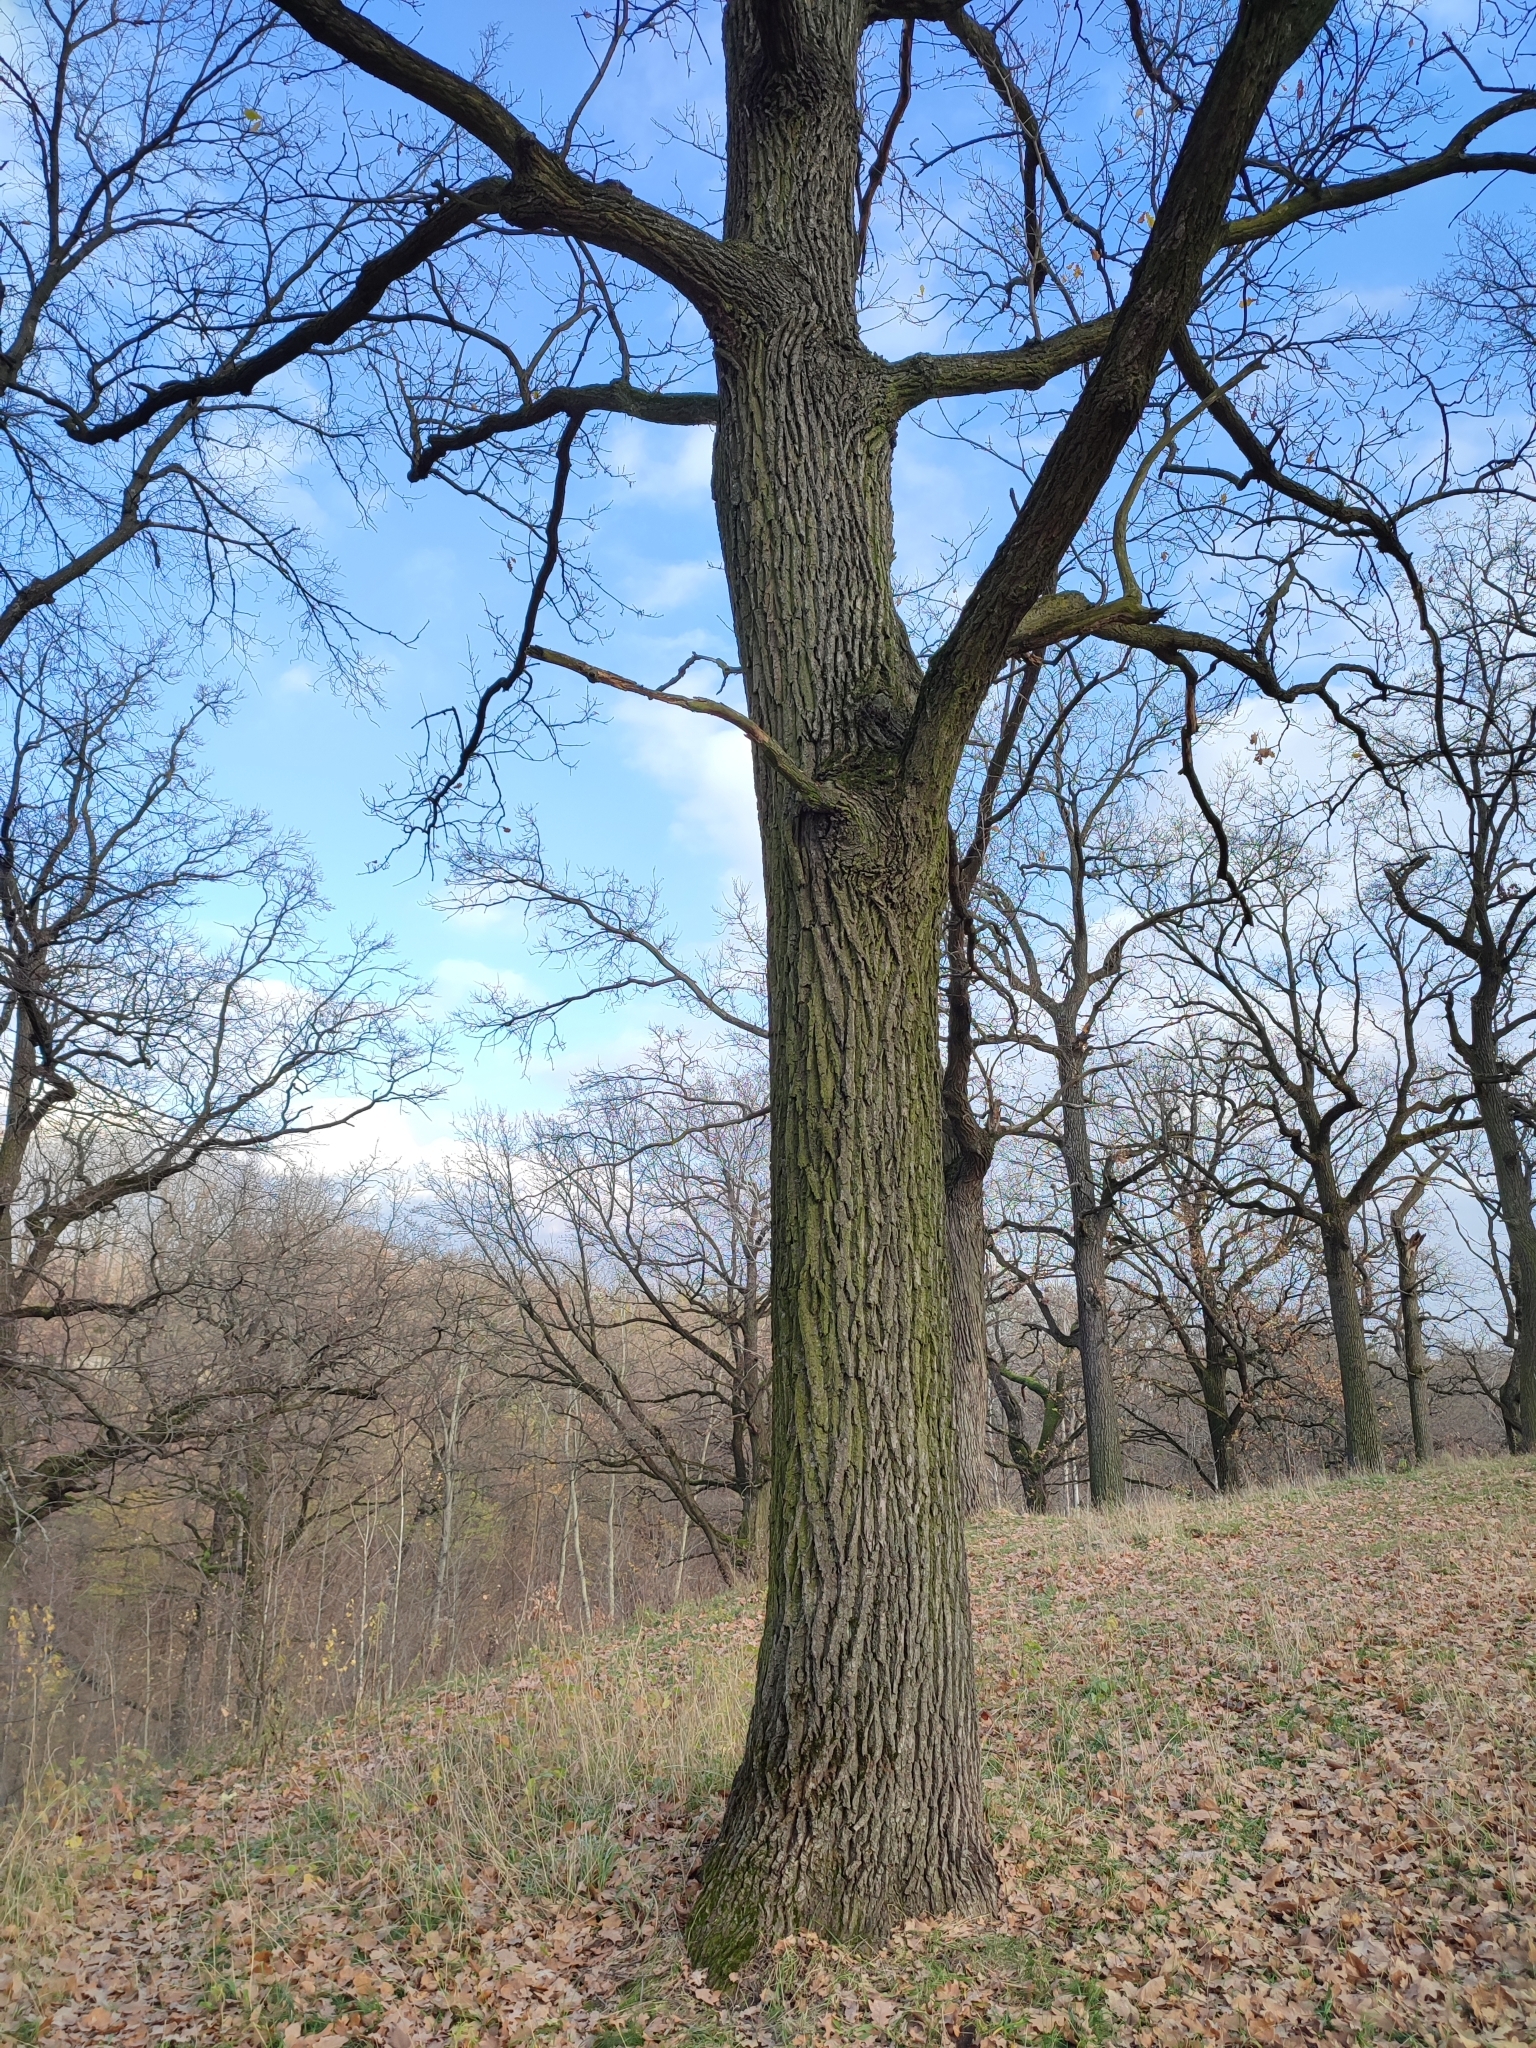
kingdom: Plantae
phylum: Tracheophyta
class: Magnoliopsida
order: Fagales
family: Fagaceae
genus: Quercus
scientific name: Quercus robur
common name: Pedunculate oak
